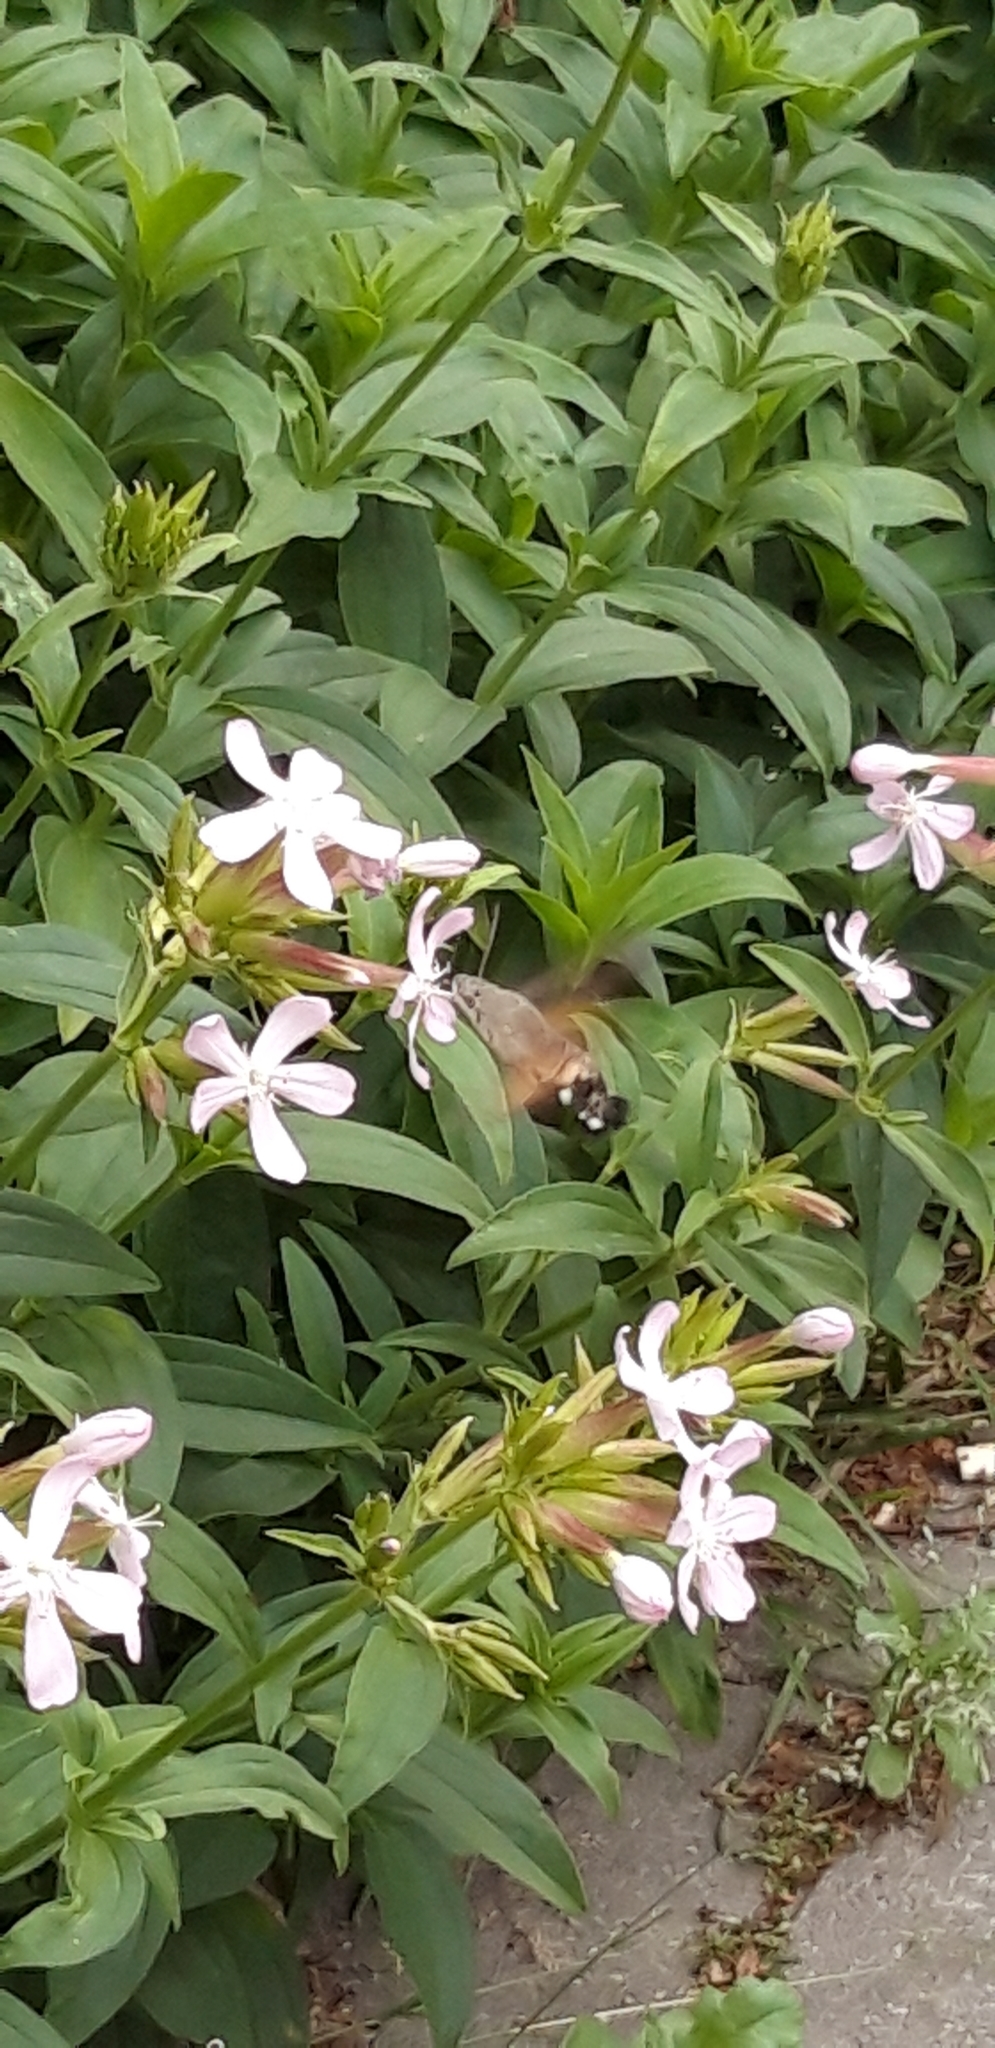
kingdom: Animalia
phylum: Arthropoda
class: Insecta
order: Lepidoptera
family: Sphingidae
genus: Macroglossum
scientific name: Macroglossum stellatarum
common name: Humming-bird hawk-moth
